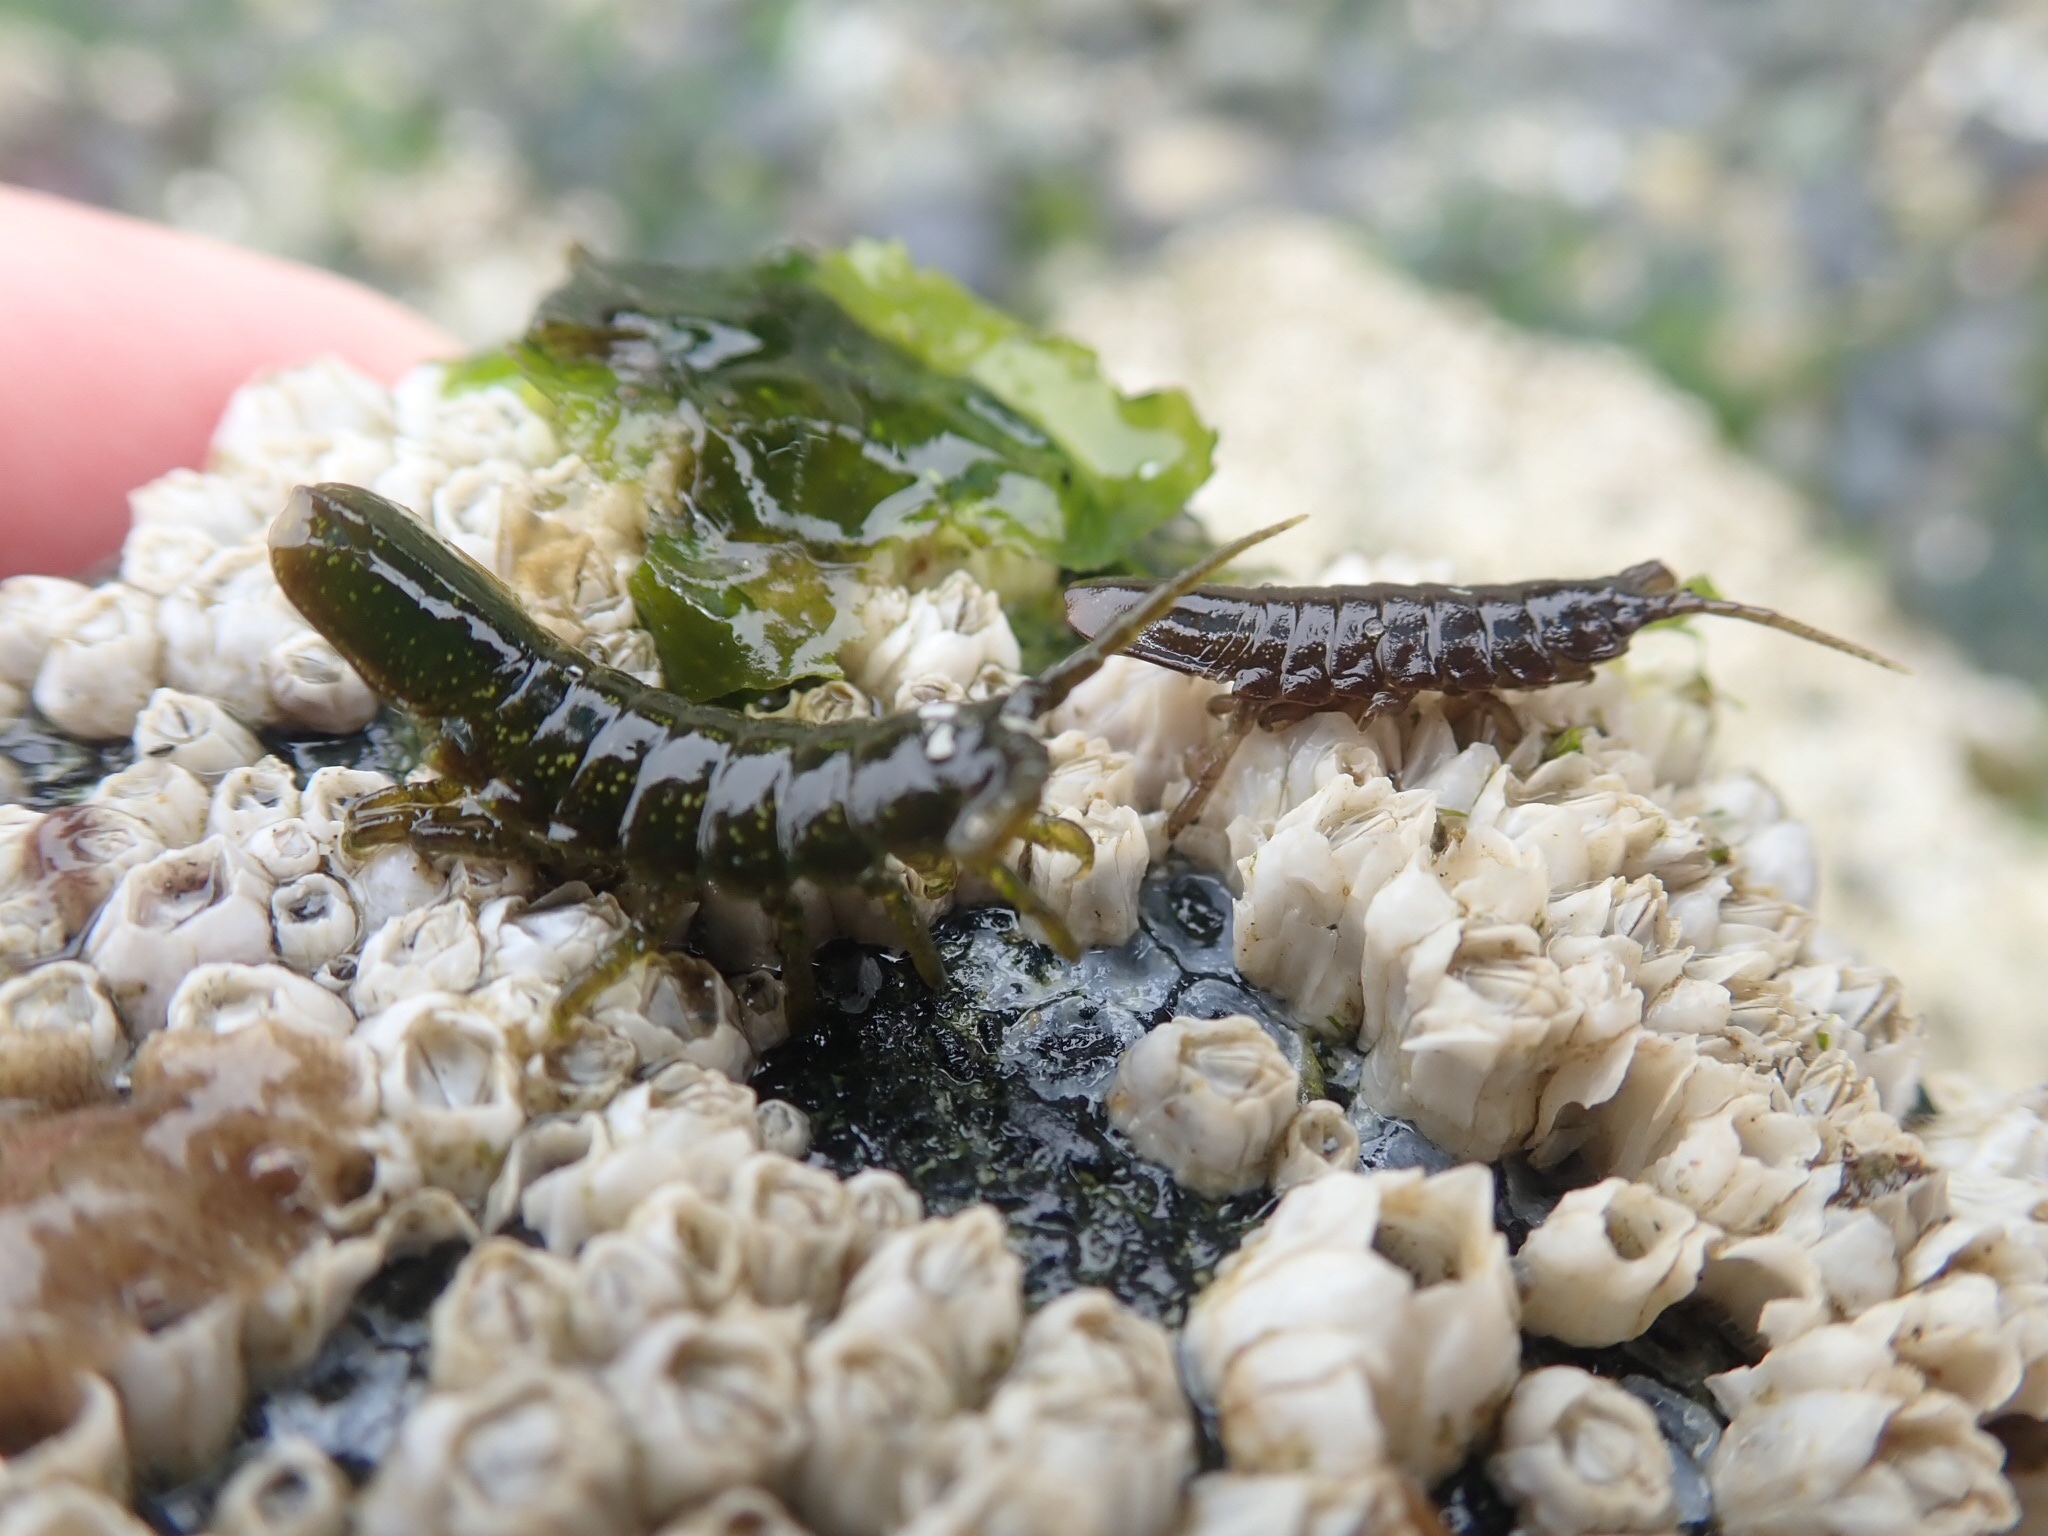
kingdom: Animalia
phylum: Arthropoda
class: Malacostraca
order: Isopoda
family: Idoteidae
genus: Pentidotea
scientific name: Pentidotea wosnesenskii
